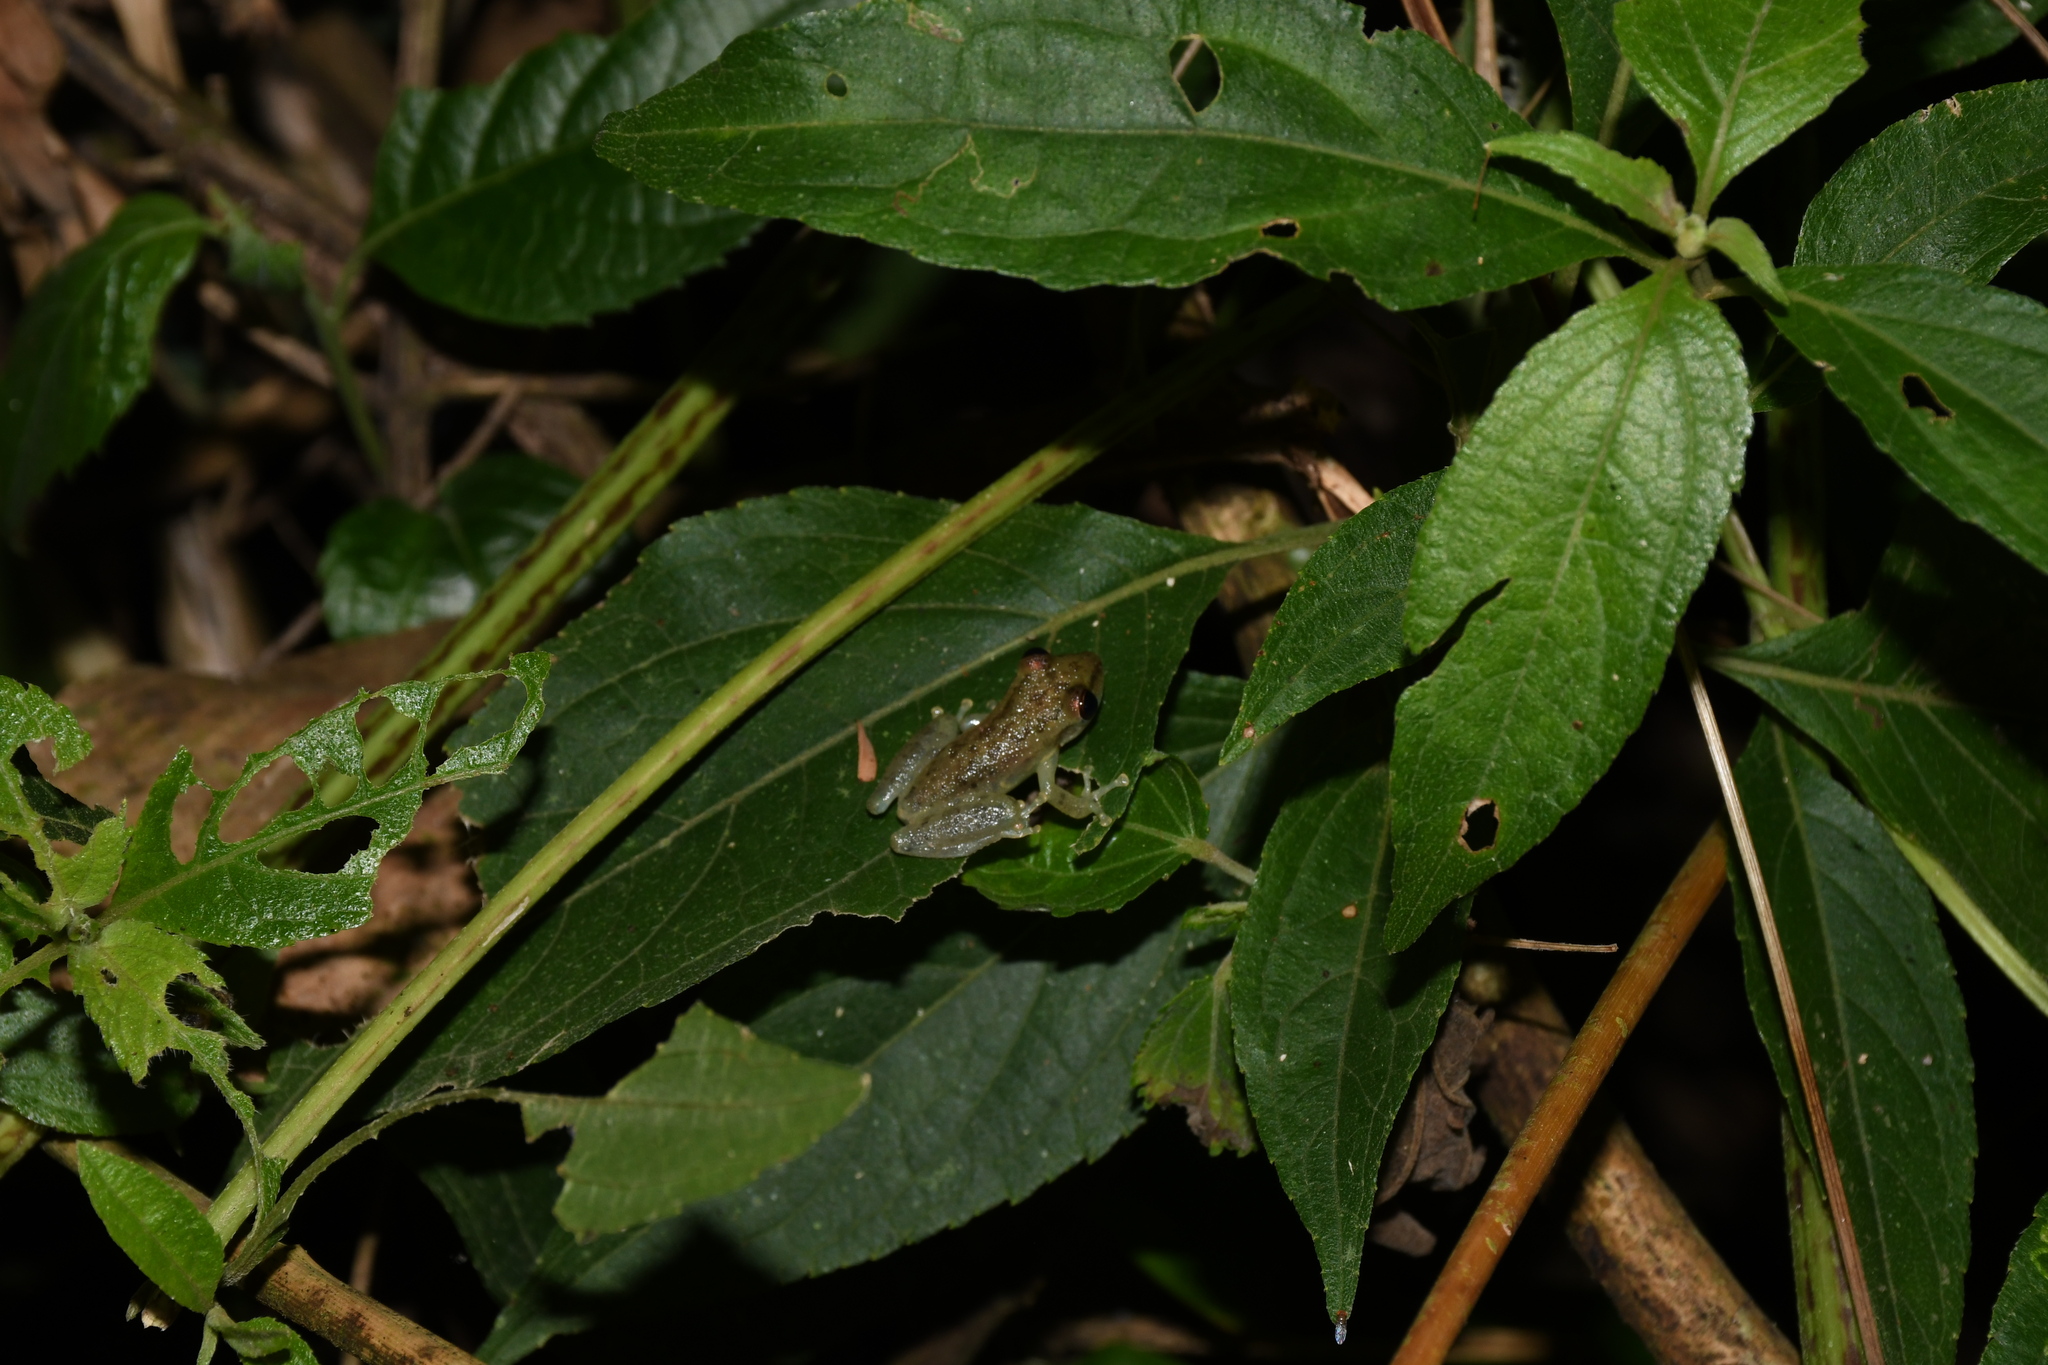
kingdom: Animalia
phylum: Chordata
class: Amphibia
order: Anura
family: Hylidae
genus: Scinax
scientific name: Scinax ruber
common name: Red snouted treefrog
